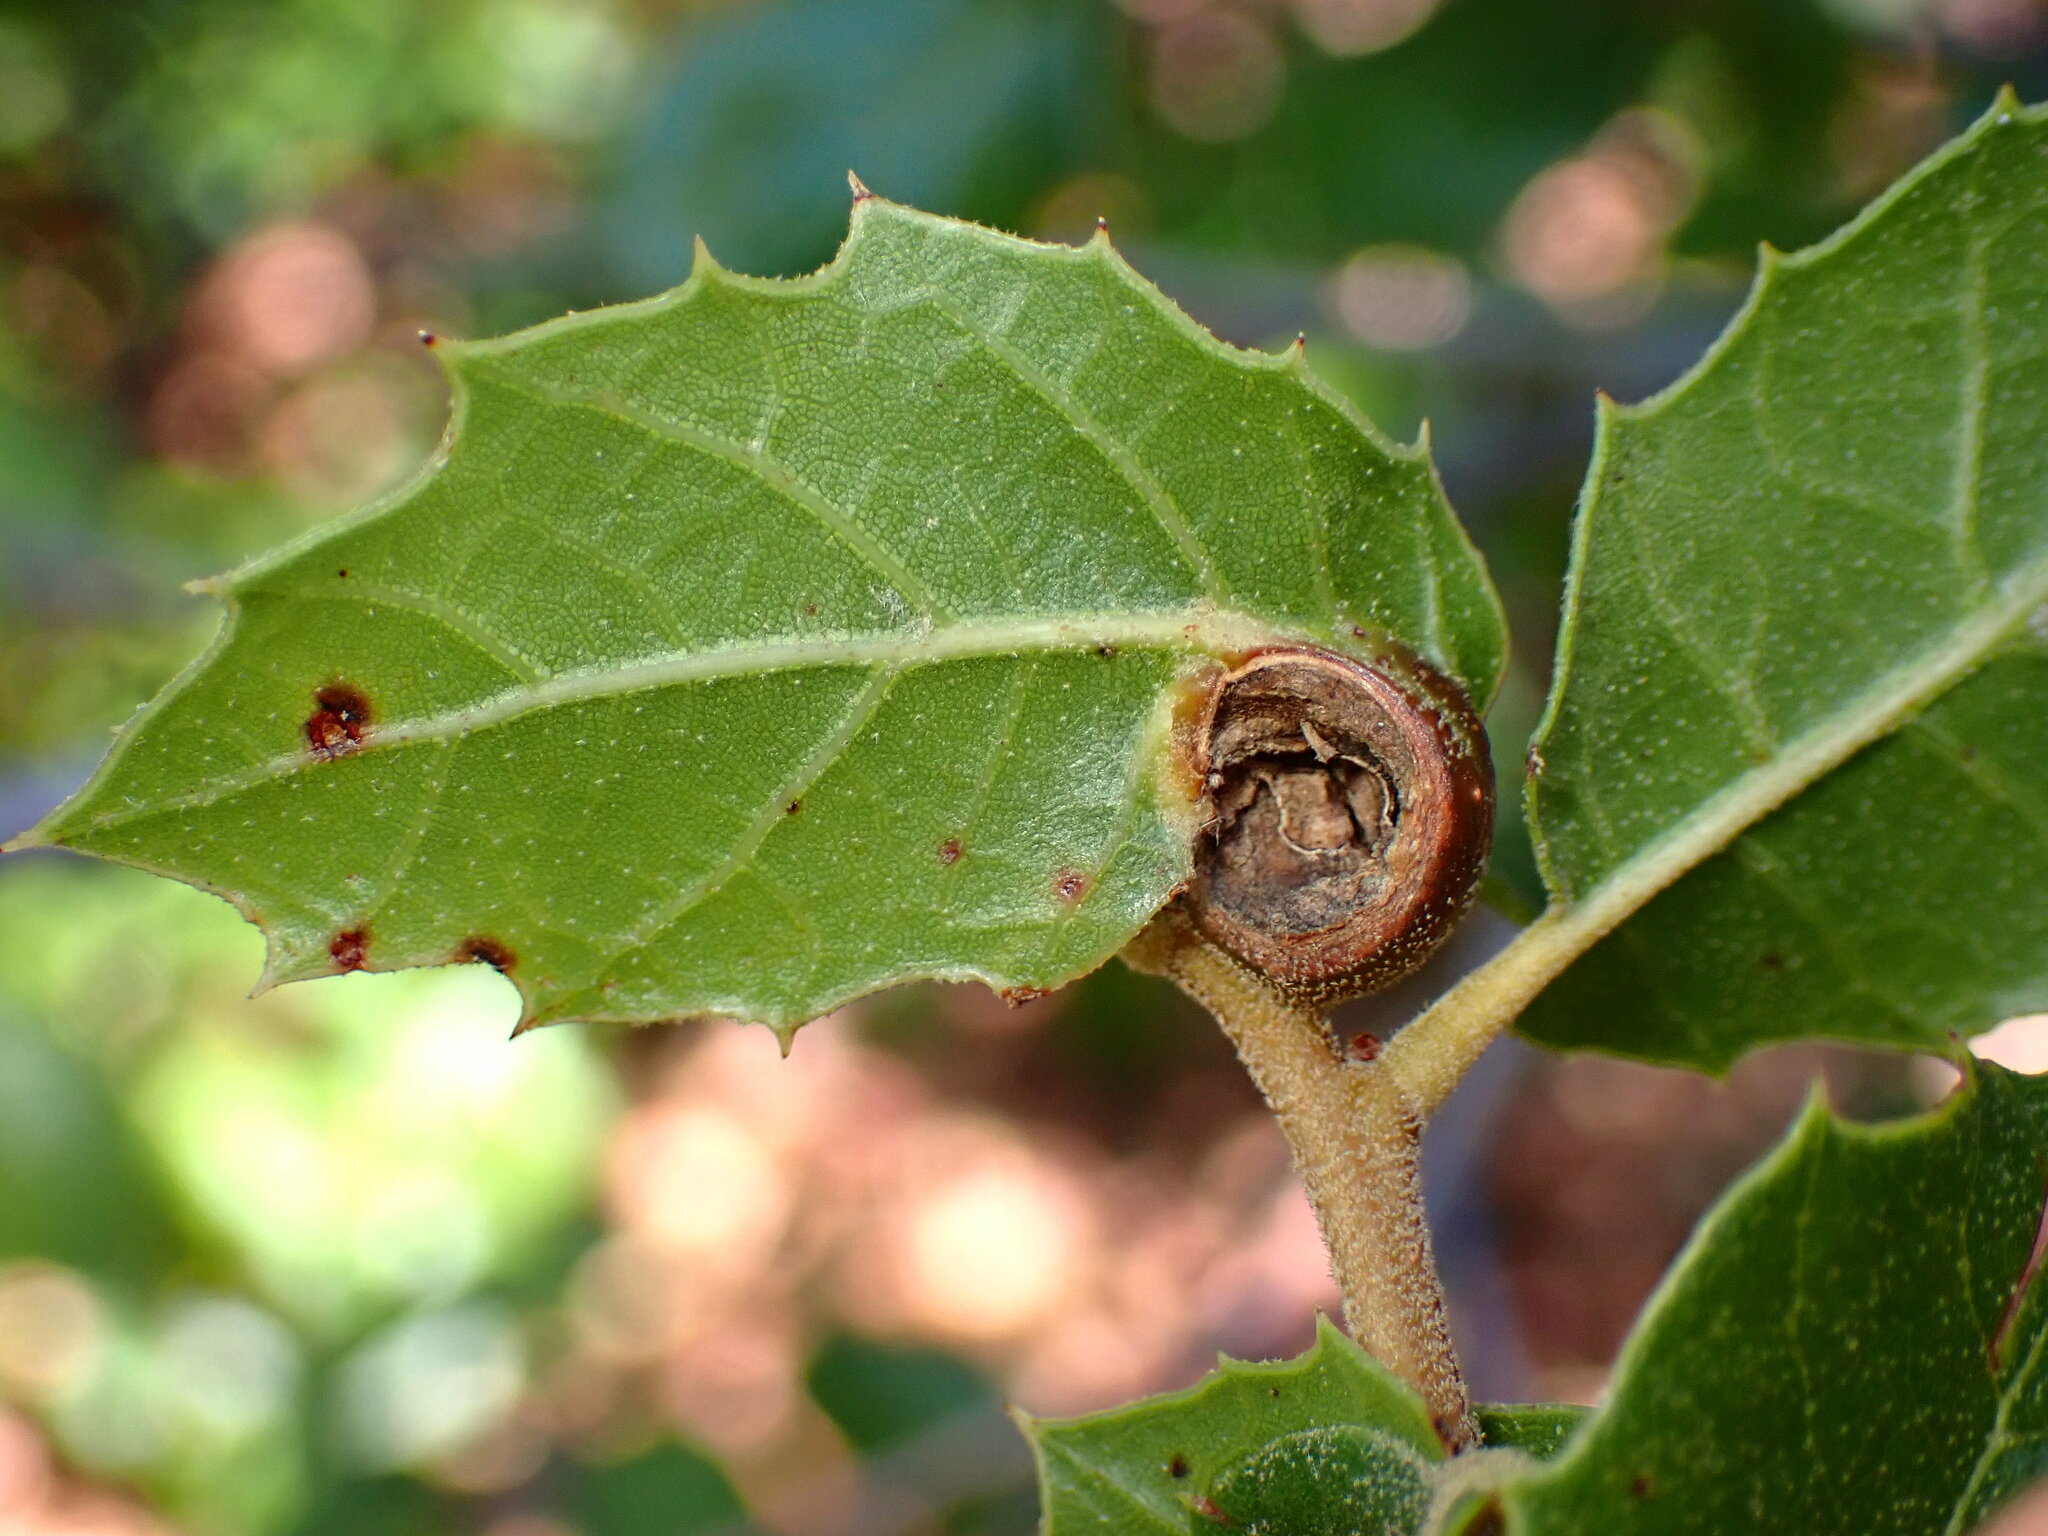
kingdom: Animalia
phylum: Arthropoda
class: Insecta
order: Hymenoptera
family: Cynipidae
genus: Callirhytis
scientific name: Callirhytis
